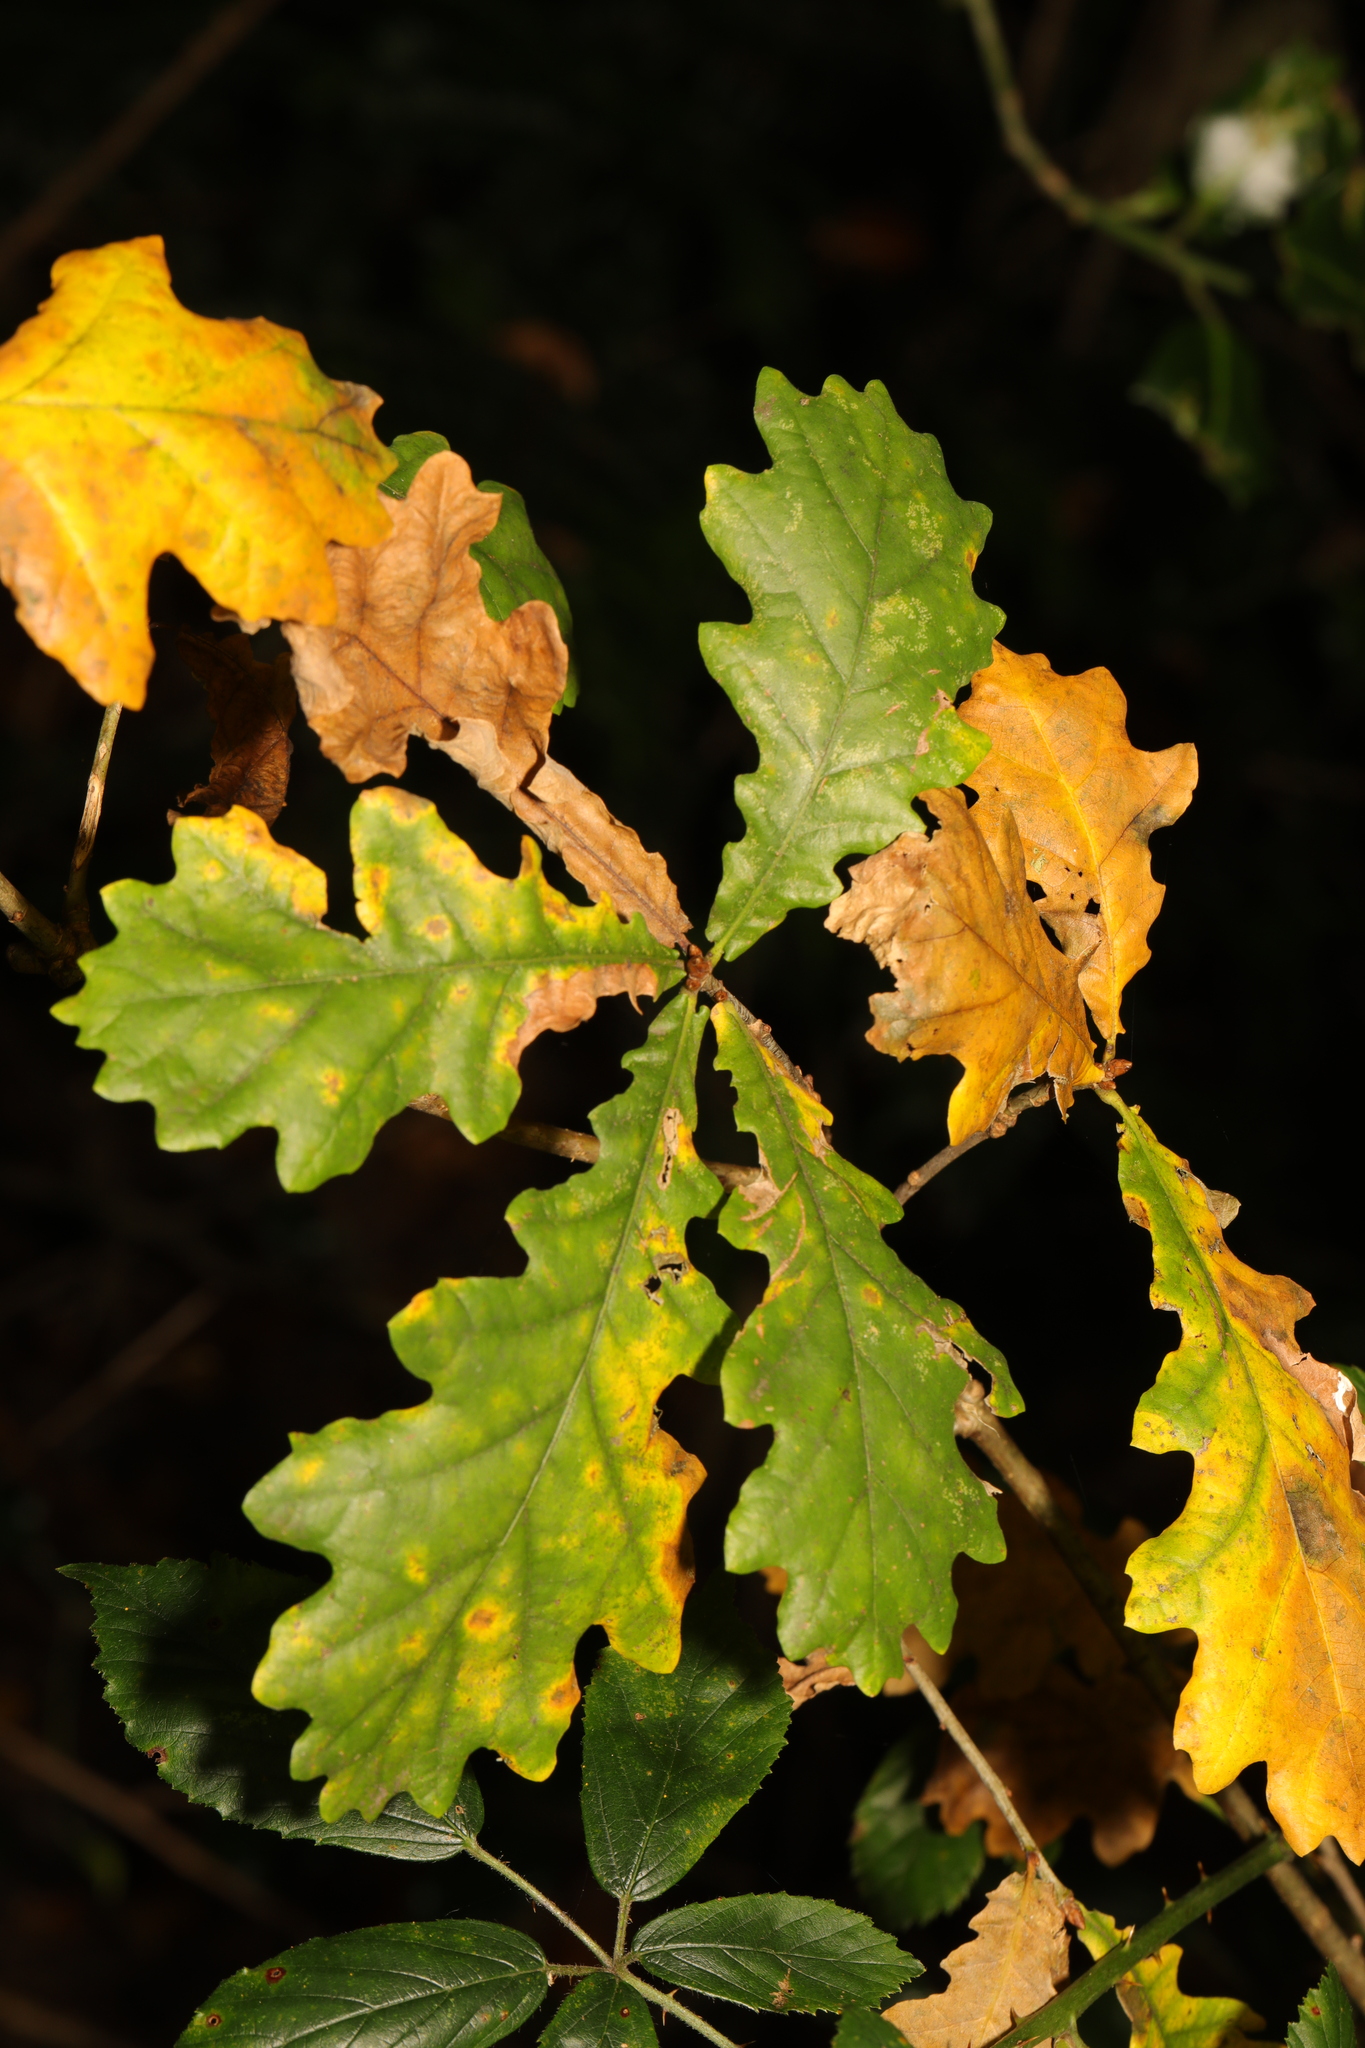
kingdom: Plantae
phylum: Tracheophyta
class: Magnoliopsida
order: Fagales
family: Fagaceae
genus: Quercus
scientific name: Quercus robur
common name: Pedunculate oak
